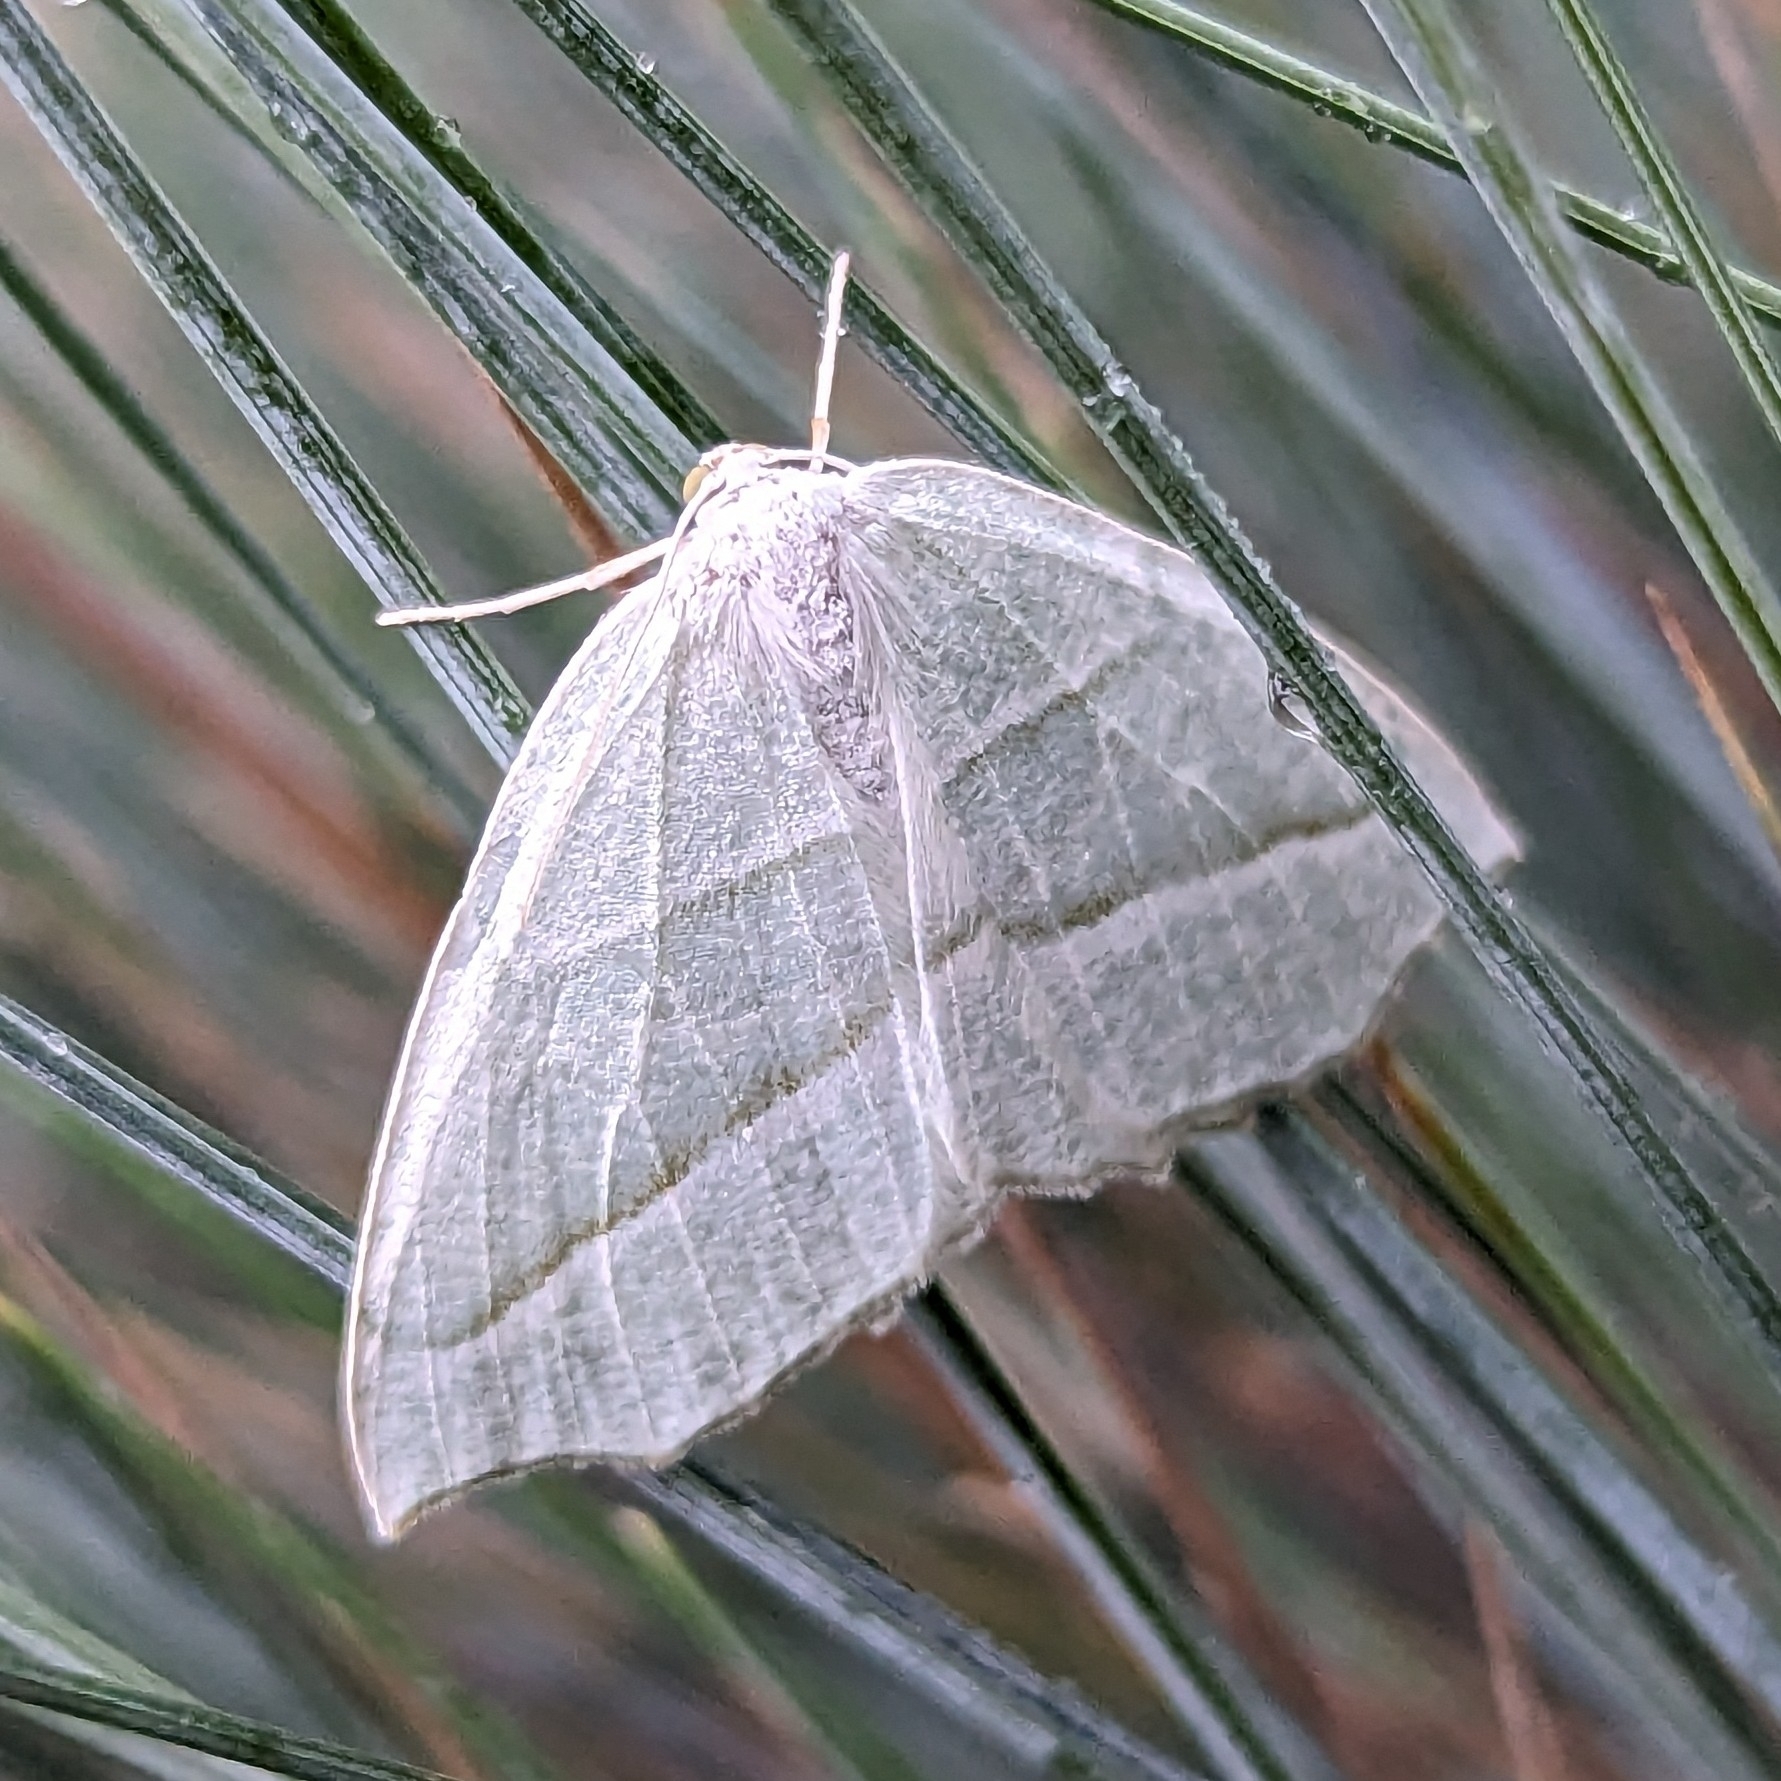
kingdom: Animalia
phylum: Arthropoda
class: Insecta
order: Lepidoptera
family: Geometridae
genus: Campaea
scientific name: Campaea perlata
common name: Fringed looper
